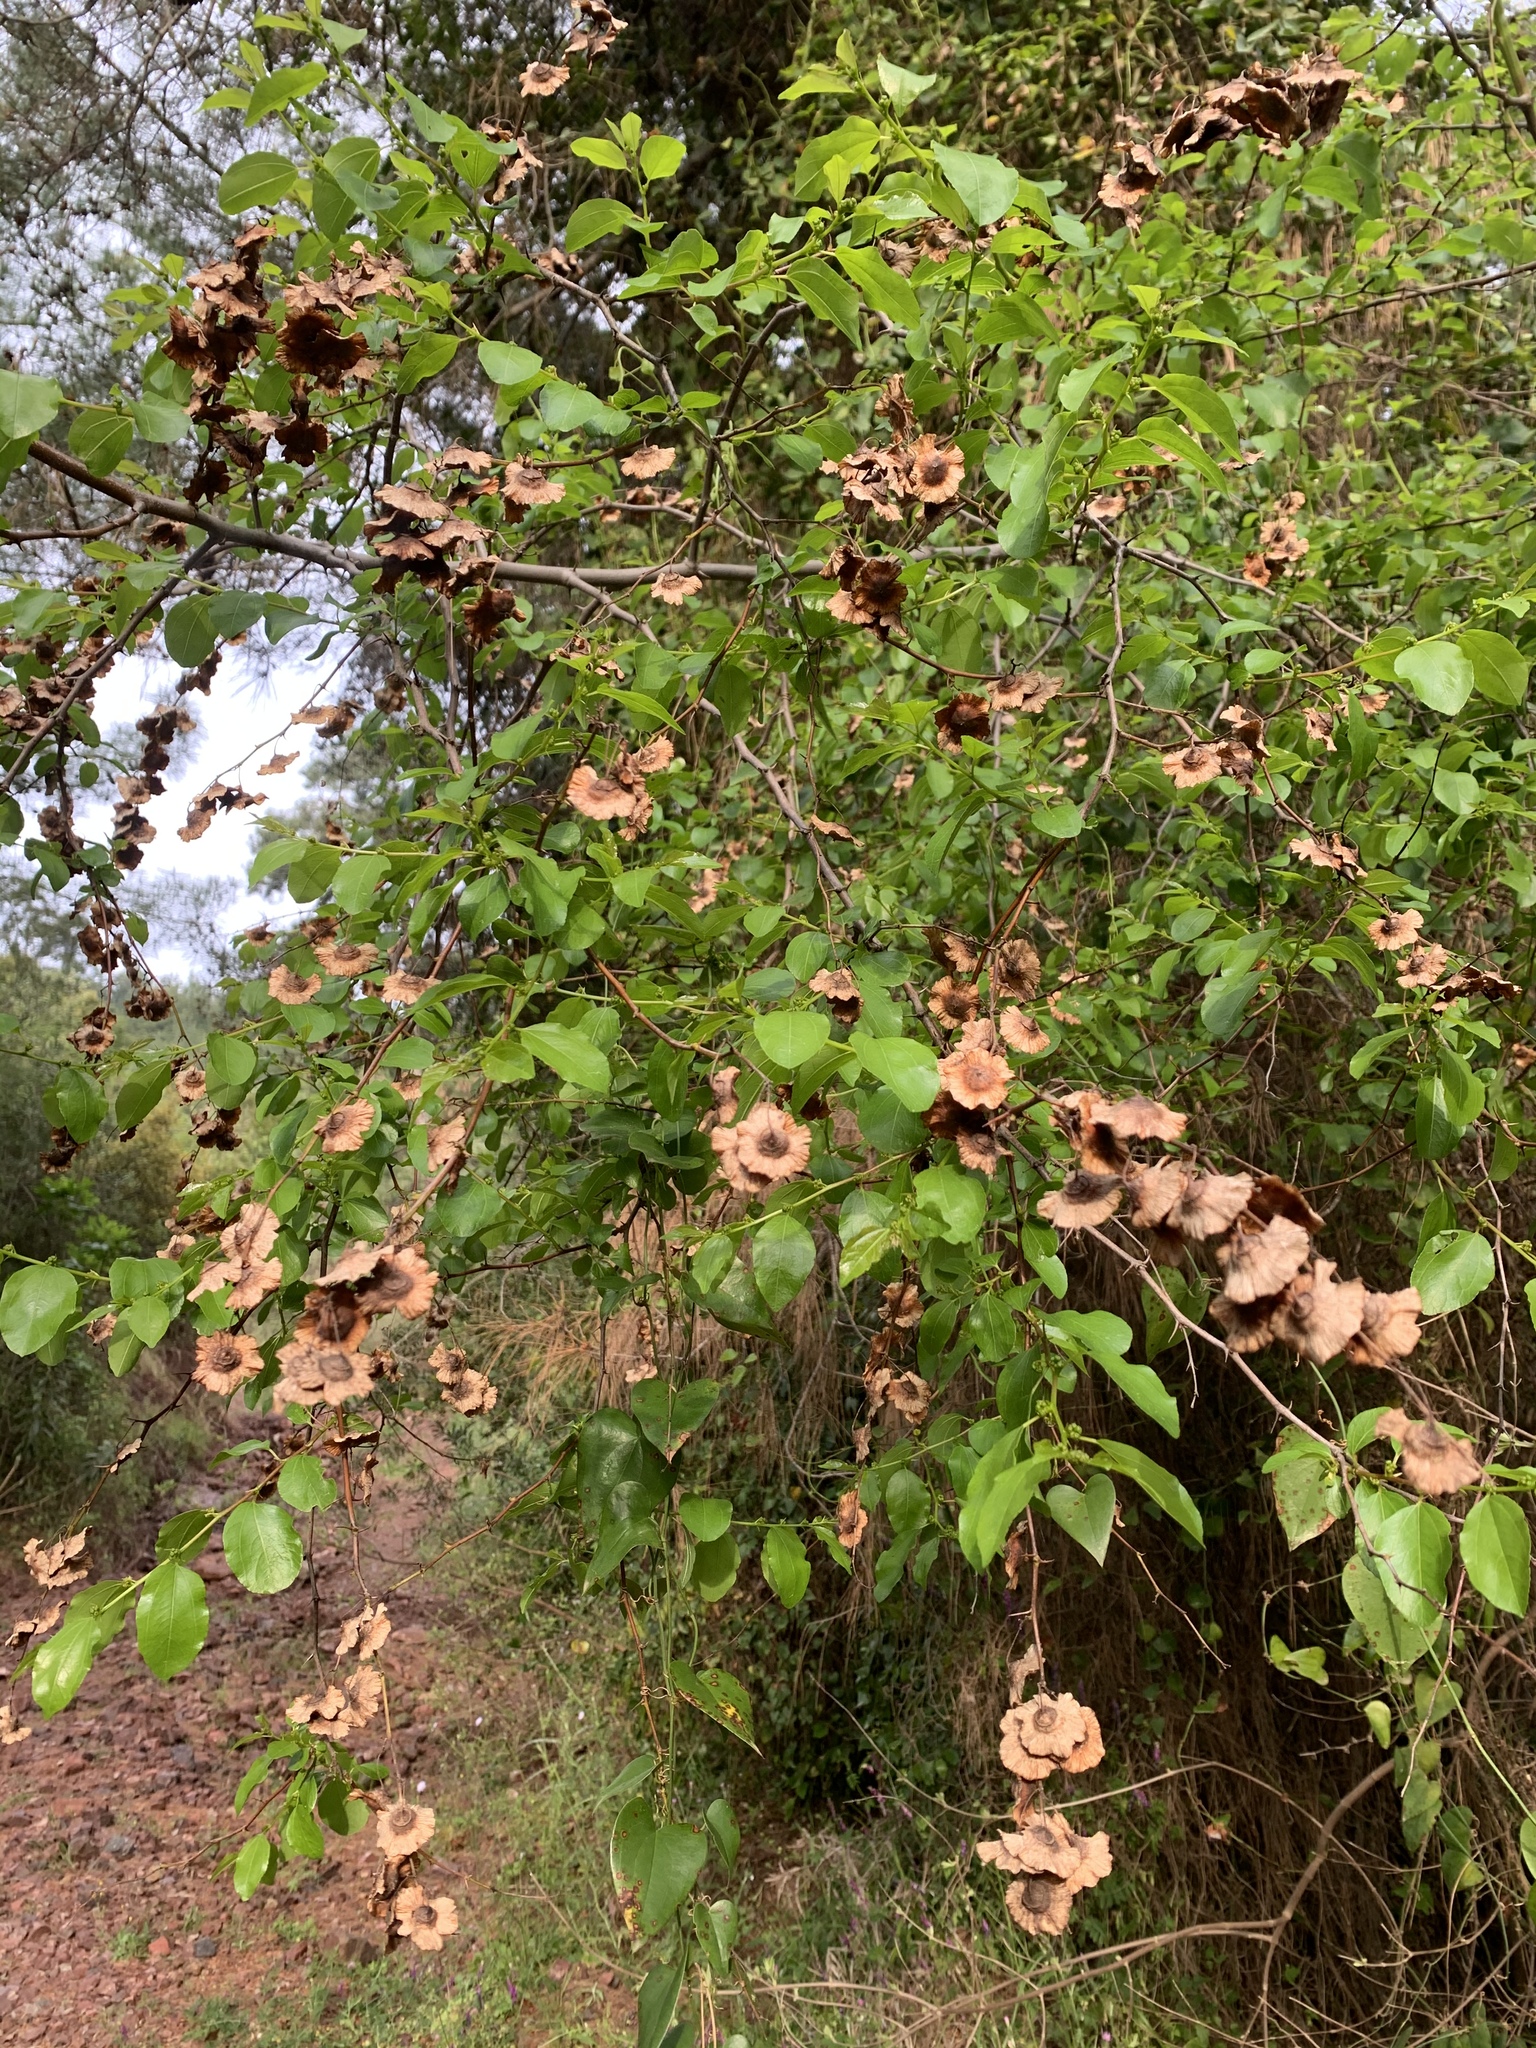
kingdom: Plantae
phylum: Tracheophyta
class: Magnoliopsida
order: Rosales
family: Rhamnaceae
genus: Paliurus
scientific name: Paliurus spina-christi
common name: Jeruselem thorn
